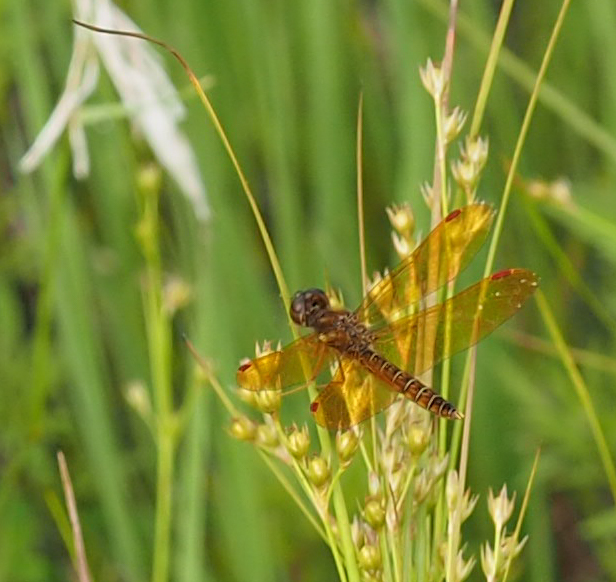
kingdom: Animalia
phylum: Arthropoda
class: Insecta
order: Odonata
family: Libellulidae
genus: Perithemis
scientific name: Perithemis tenera
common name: Eastern amberwing
